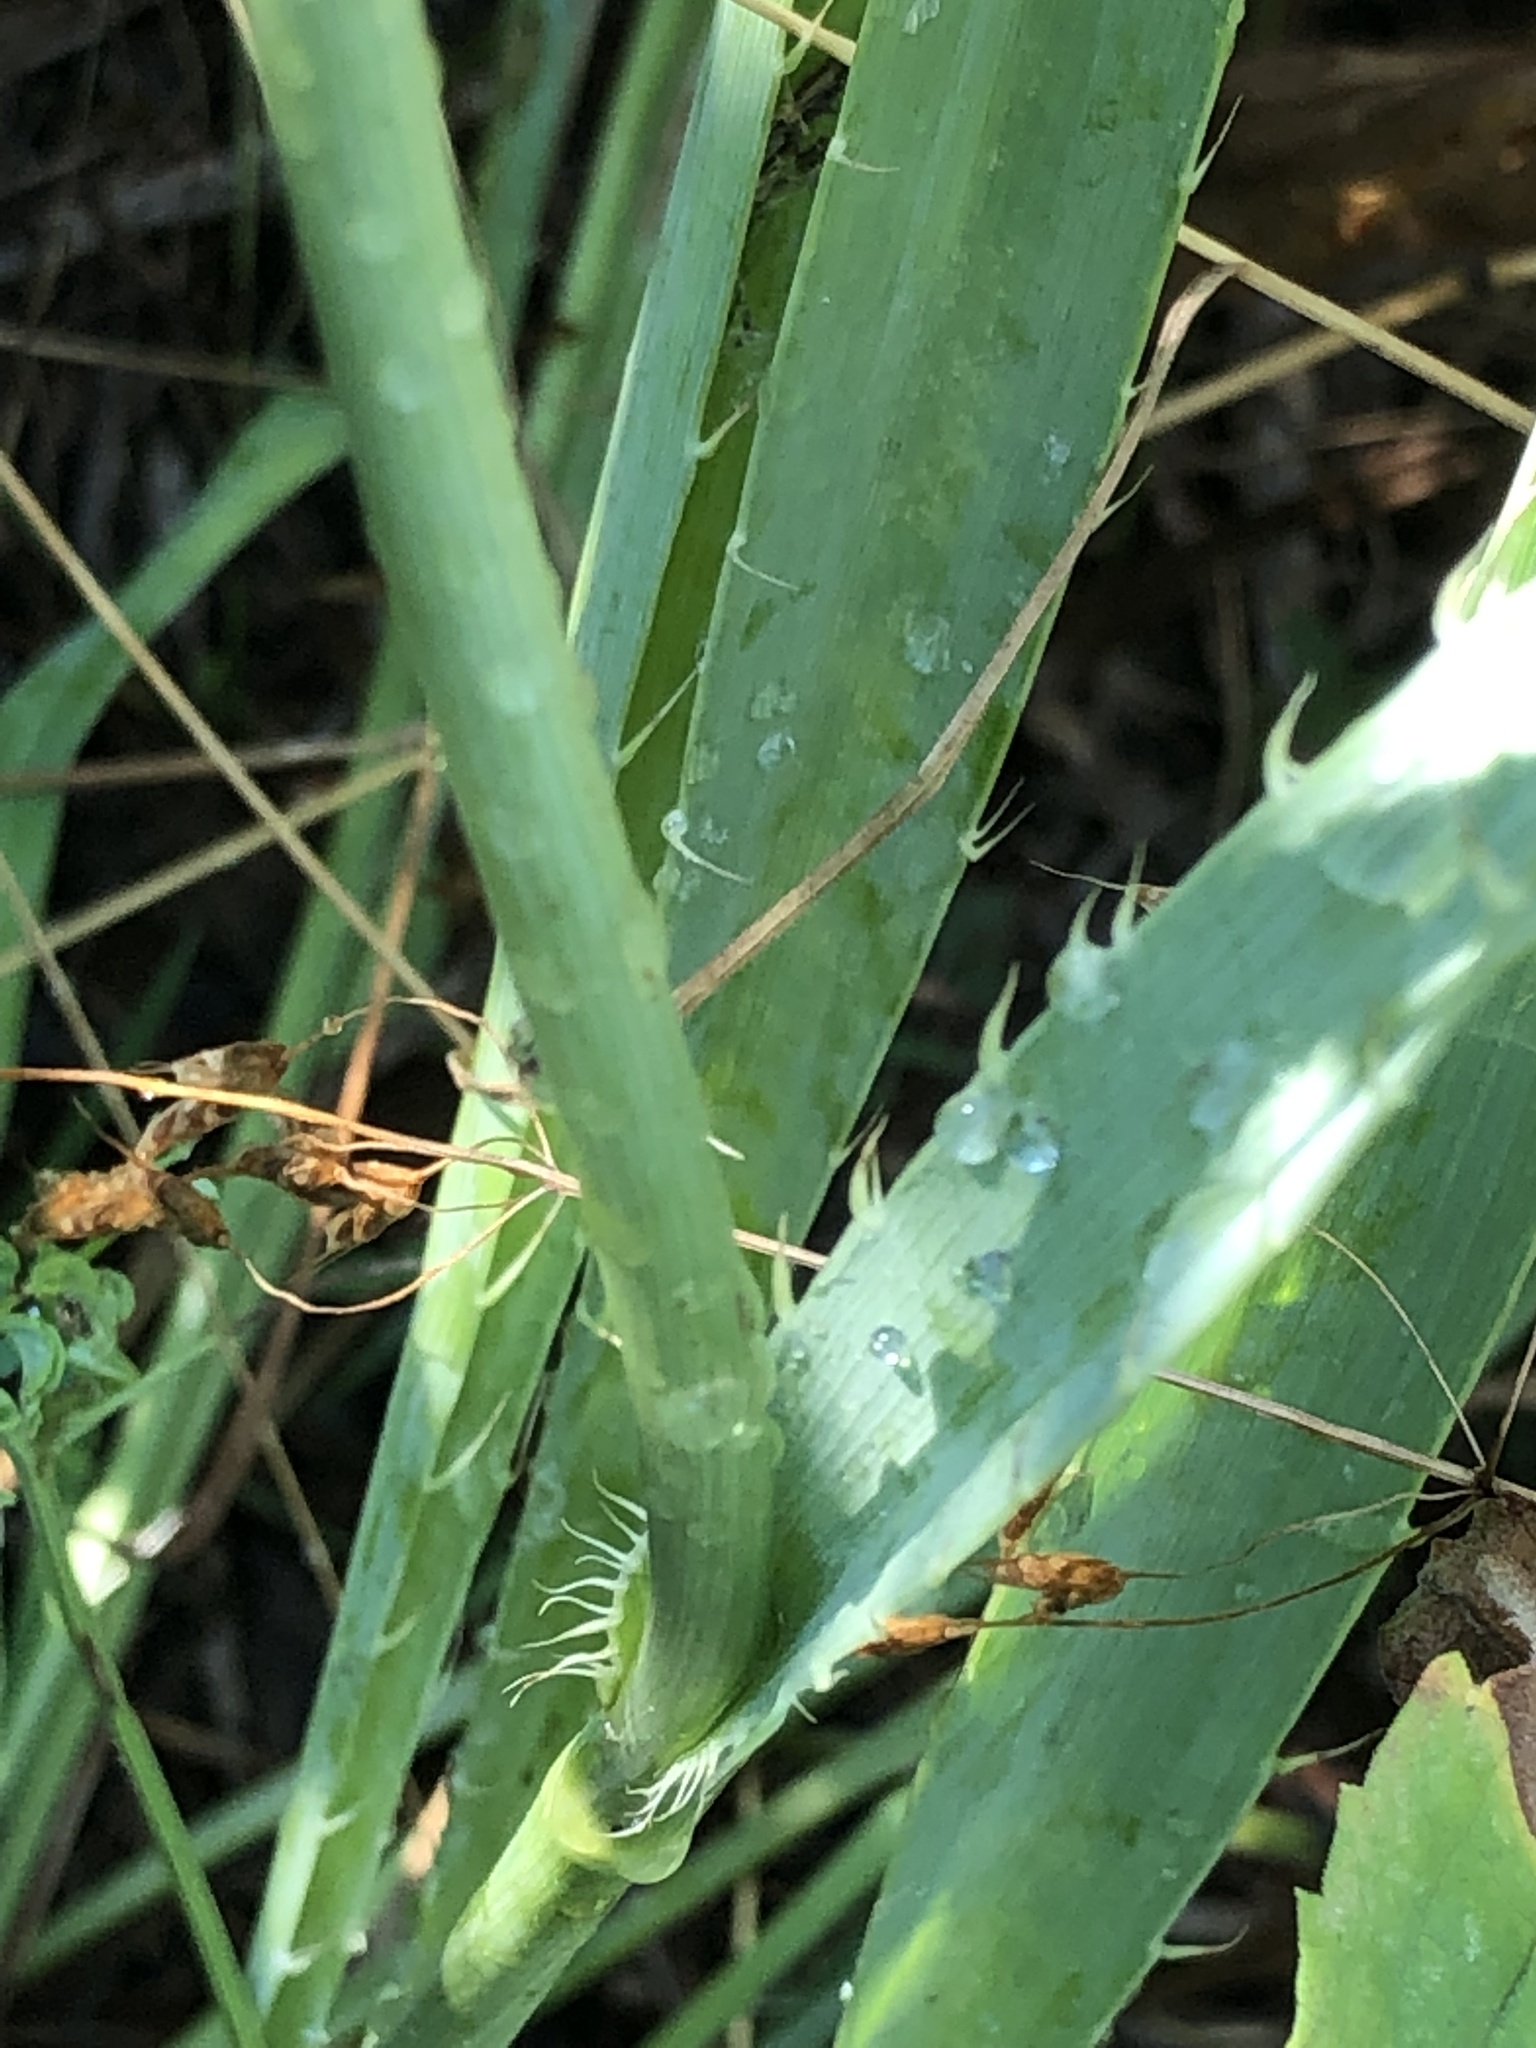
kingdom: Plantae
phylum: Tracheophyta
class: Magnoliopsida
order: Apiales
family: Apiaceae
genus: Eryngium
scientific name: Eryngium yuccifolium
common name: Button eryngo
